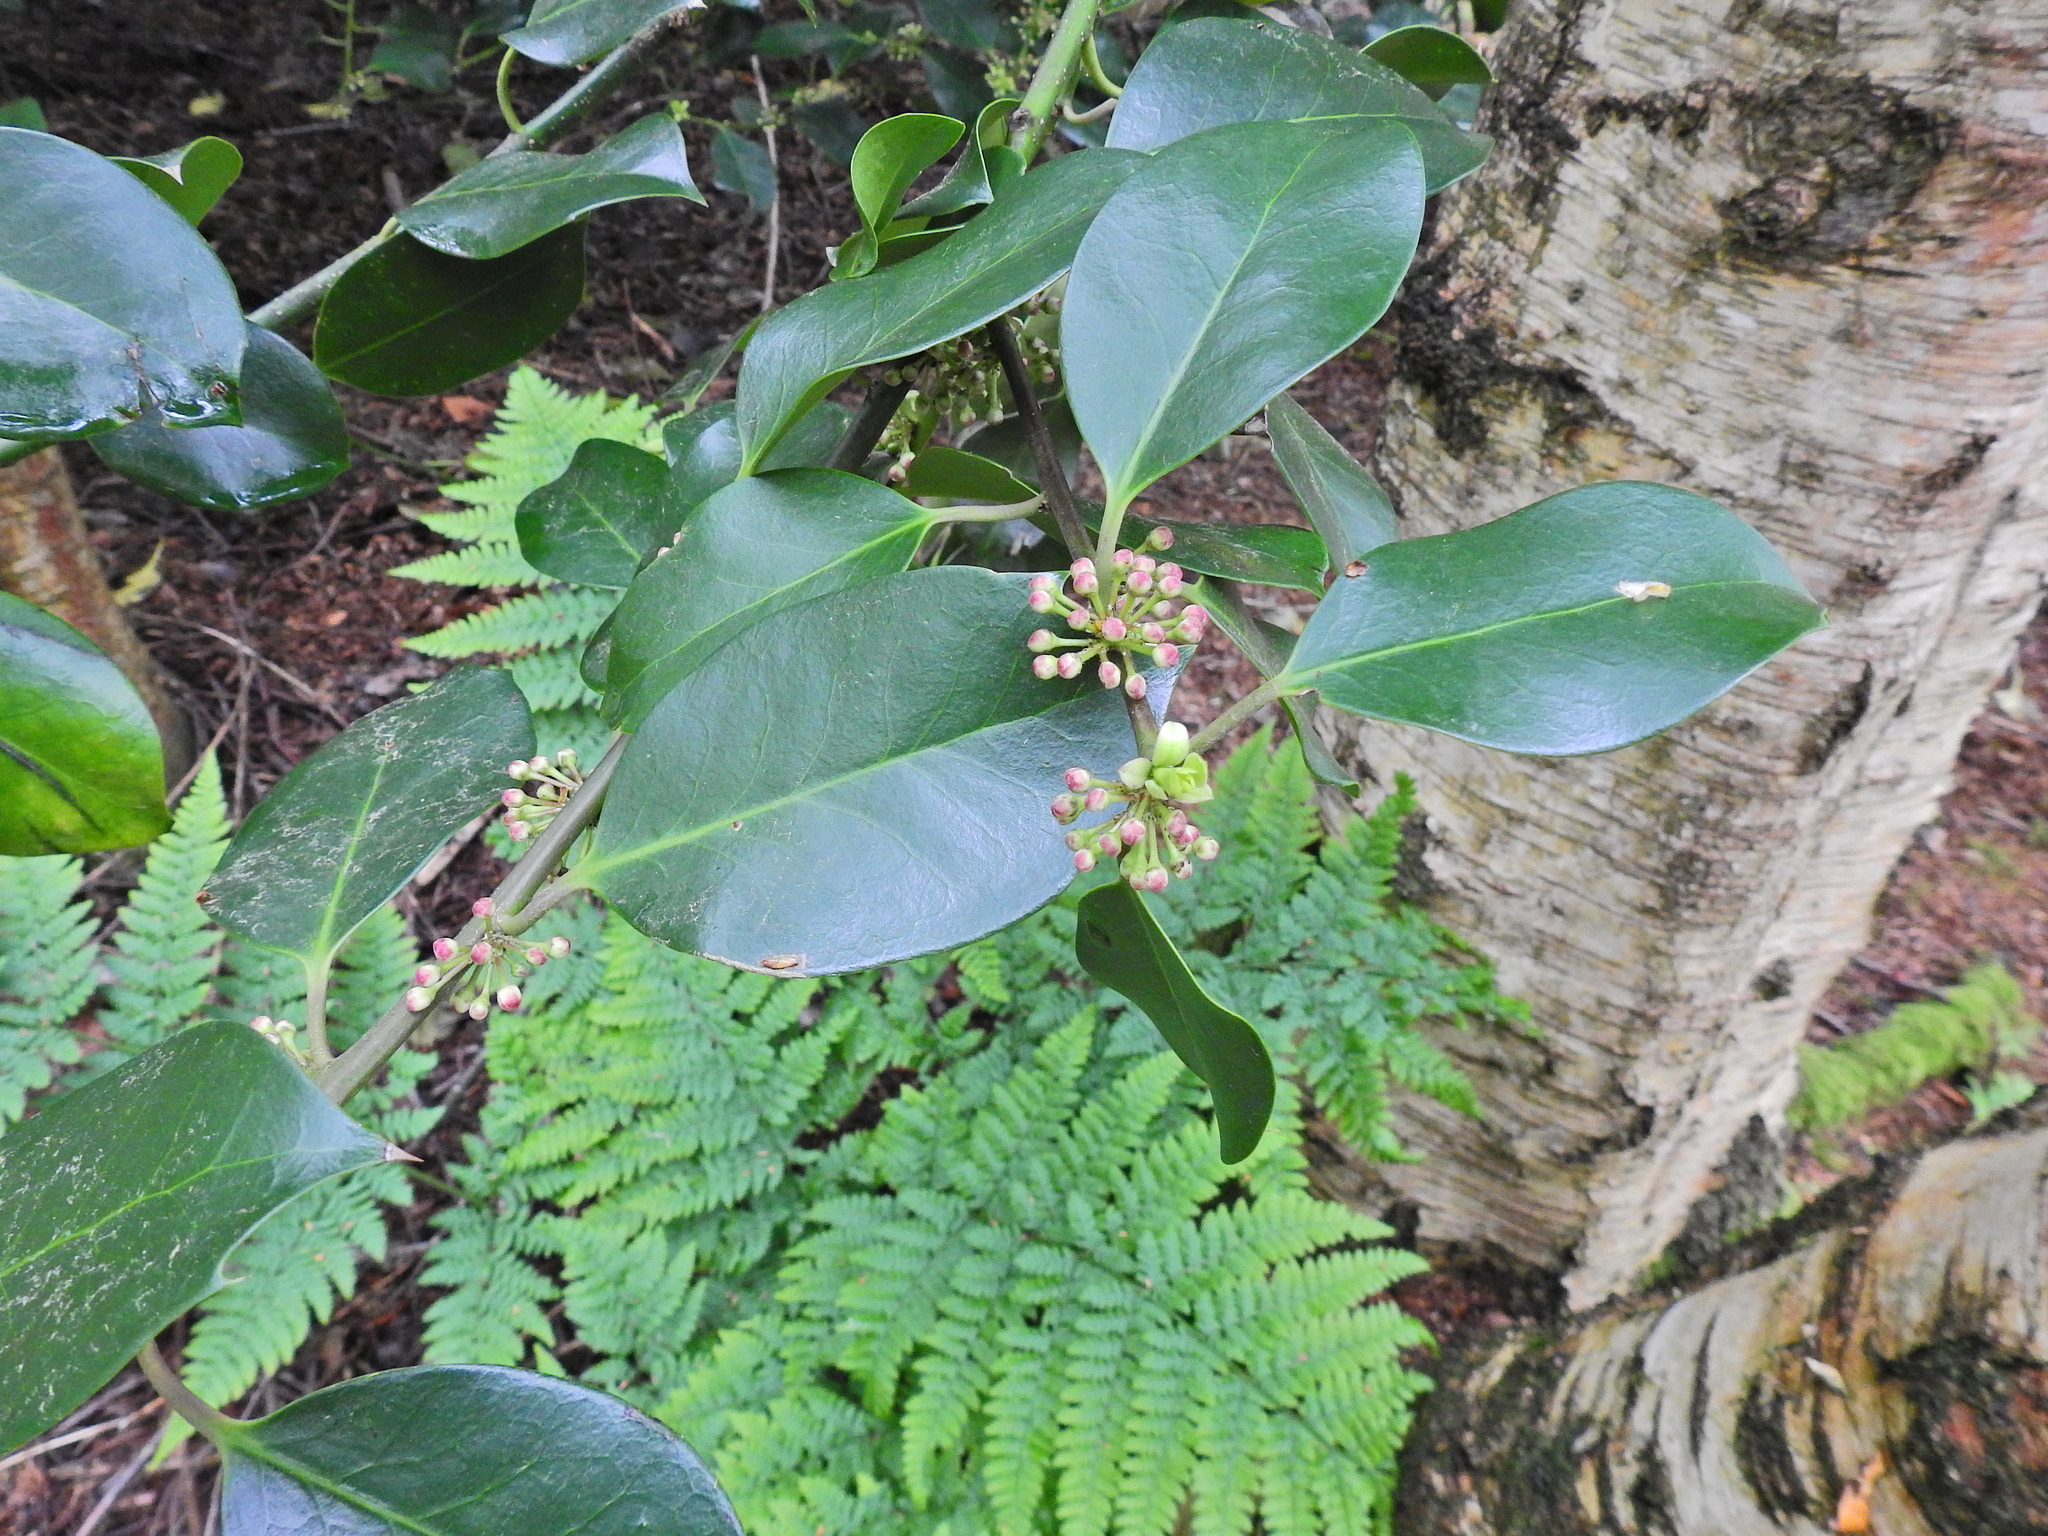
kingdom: Plantae
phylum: Tracheophyta
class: Magnoliopsida
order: Aquifoliales
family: Aquifoliaceae
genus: Ilex
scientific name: Ilex aquifolium
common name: English holly
